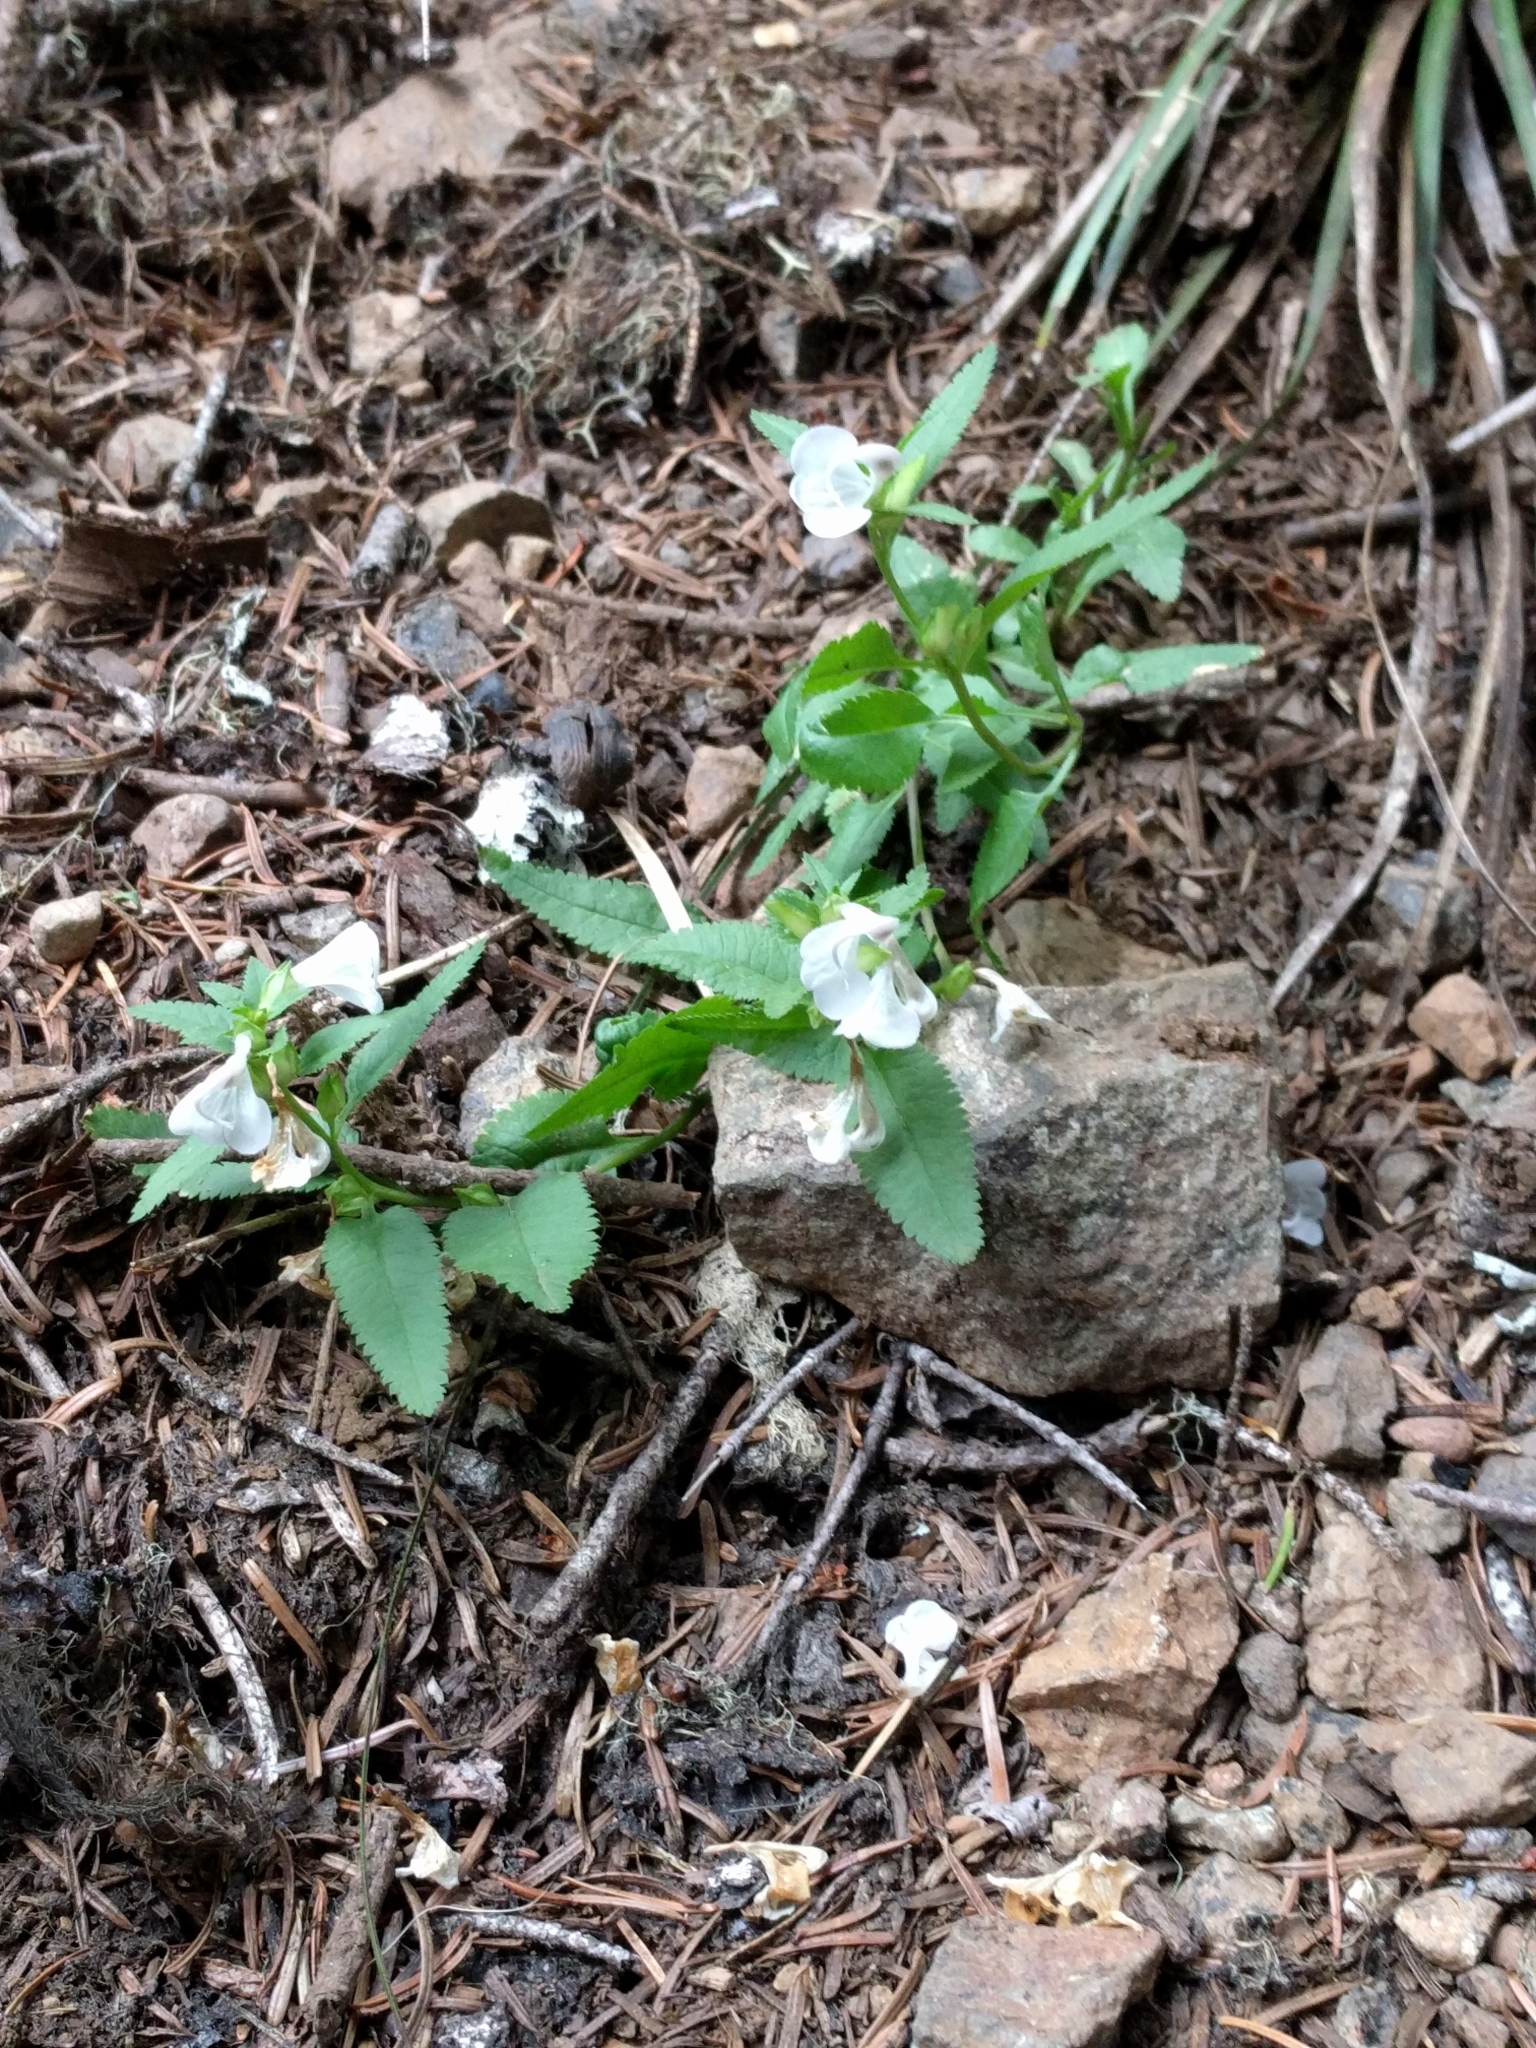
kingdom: Plantae
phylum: Tracheophyta
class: Magnoliopsida
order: Lamiales
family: Orobanchaceae
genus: Pedicularis
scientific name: Pedicularis racemosa
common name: Leafy lousewort
